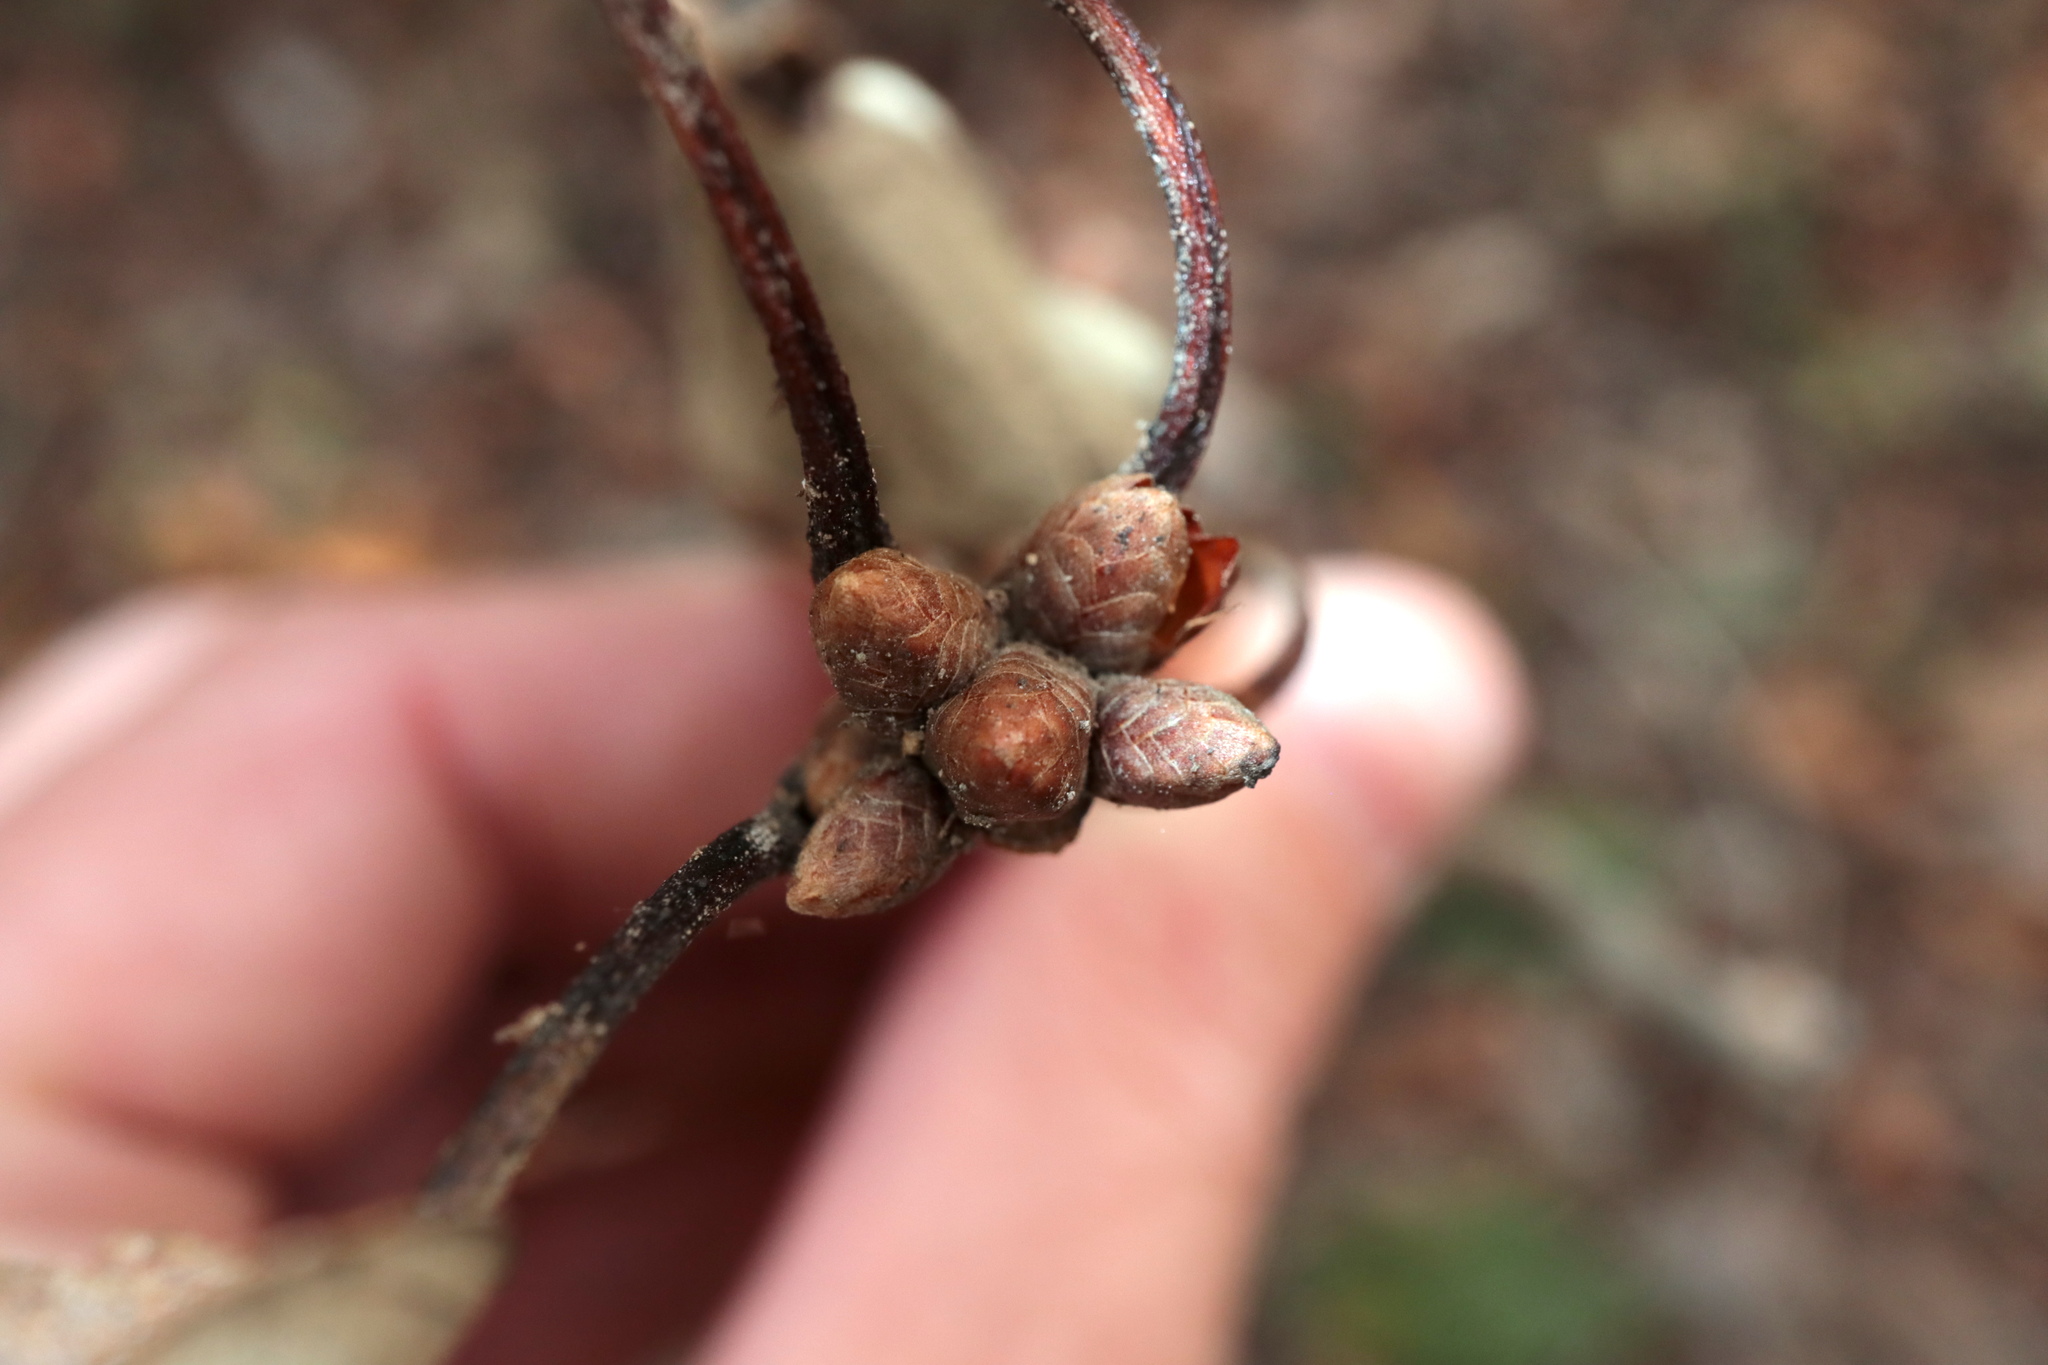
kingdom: Plantae
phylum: Tracheophyta
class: Magnoliopsida
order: Fagales
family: Fagaceae
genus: Quercus
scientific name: Quercus michauxii
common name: Swamp chestnut oak
